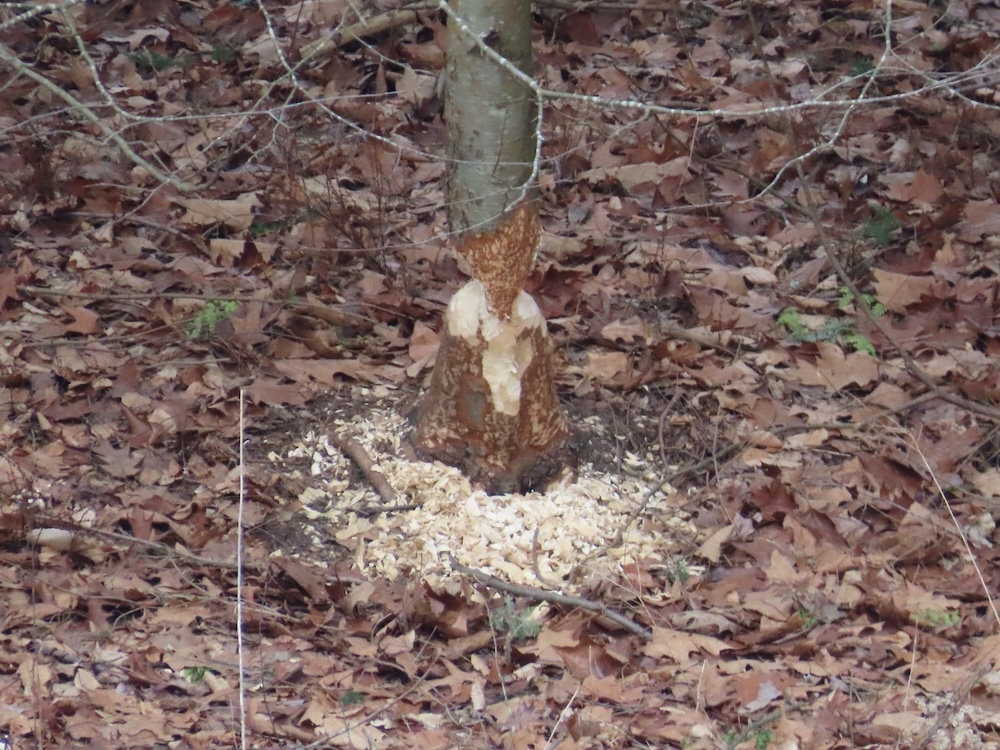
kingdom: Animalia
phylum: Chordata
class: Mammalia
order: Rodentia
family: Castoridae
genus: Castor
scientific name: Castor canadensis
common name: American beaver
